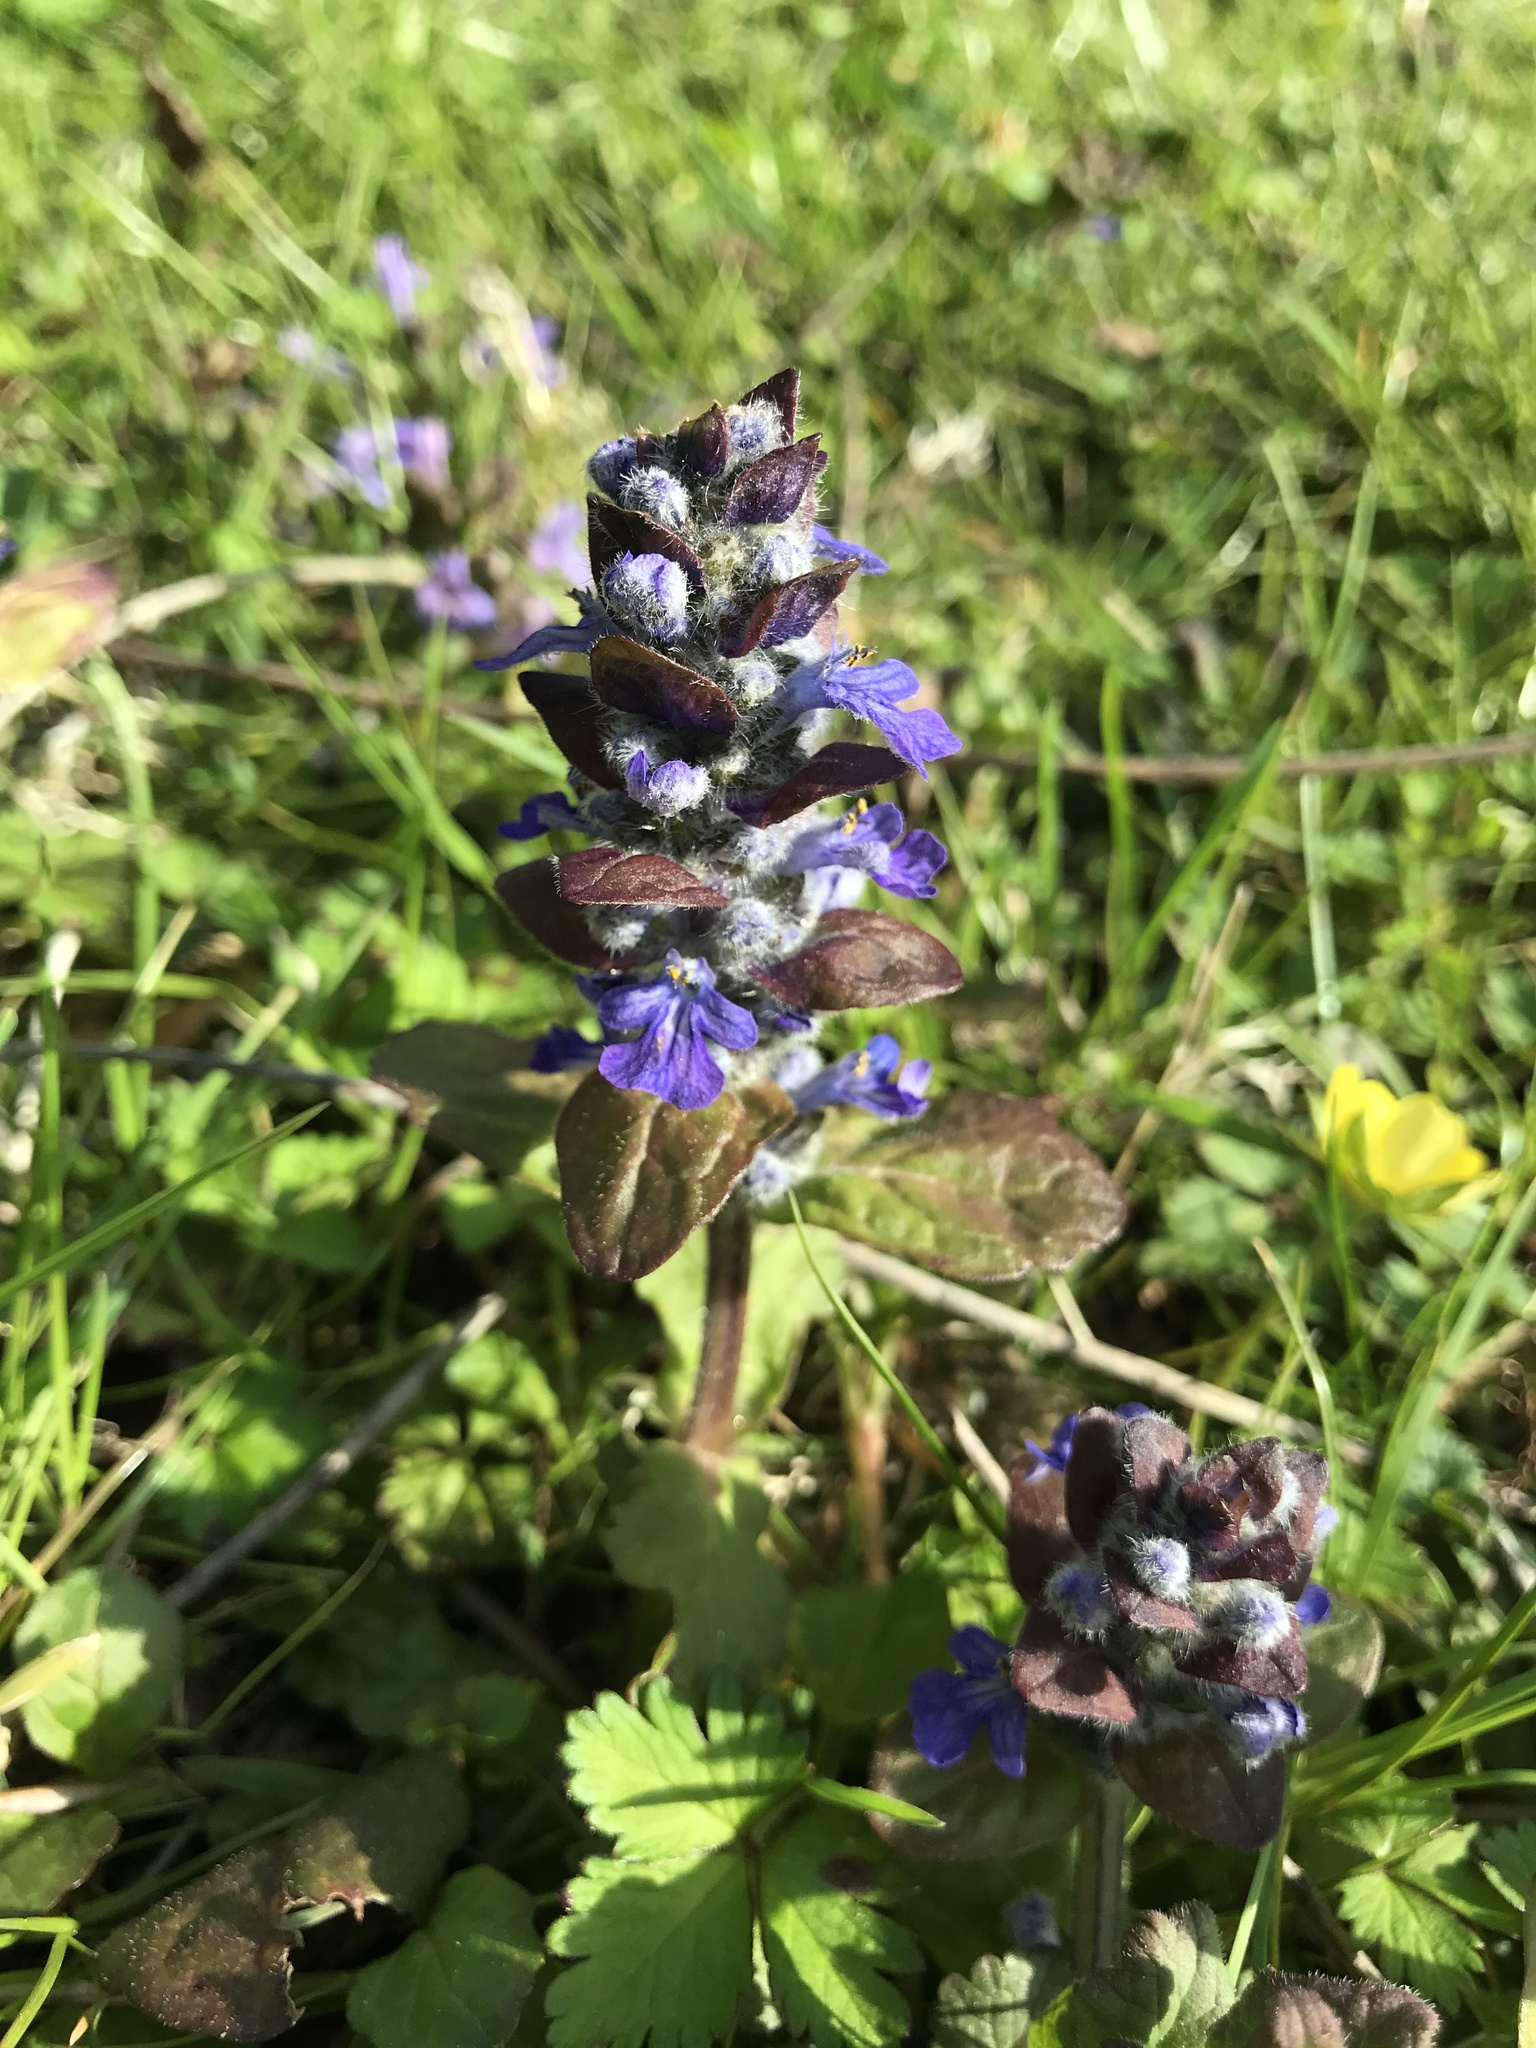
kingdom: Plantae
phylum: Tracheophyta
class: Magnoliopsida
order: Lamiales
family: Lamiaceae
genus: Ajuga
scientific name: Ajuga reptans
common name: Bugle
